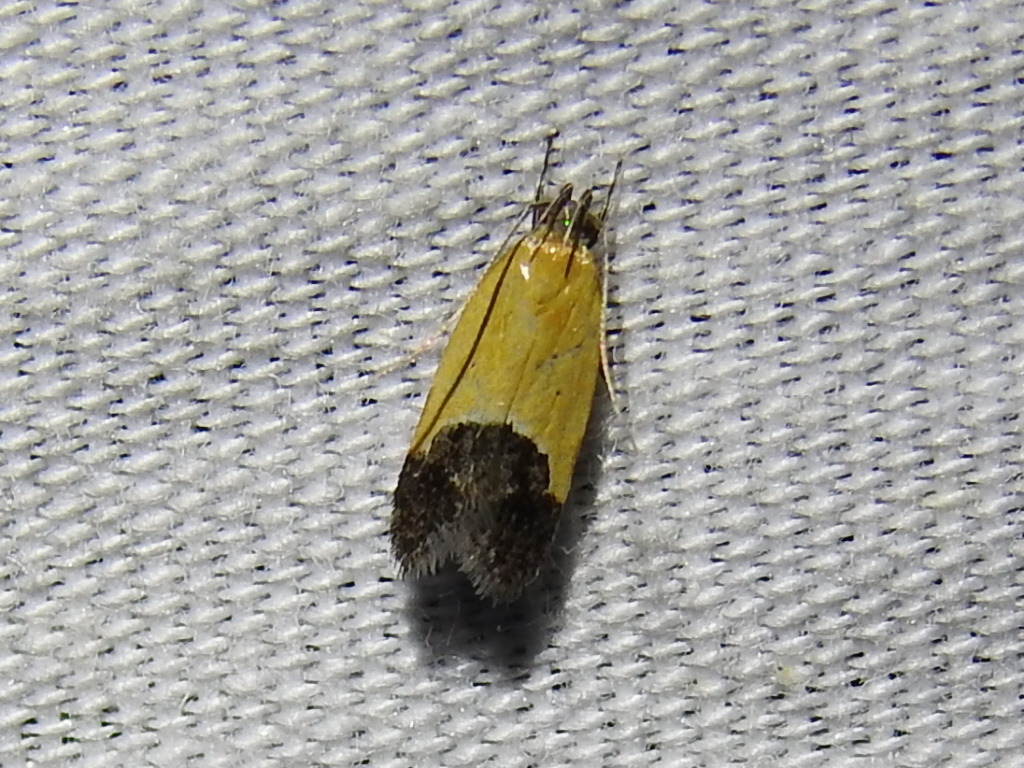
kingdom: Animalia
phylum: Arthropoda
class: Insecta
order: Lepidoptera
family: Momphidae
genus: Triclonella
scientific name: Triclonella pergandeella
